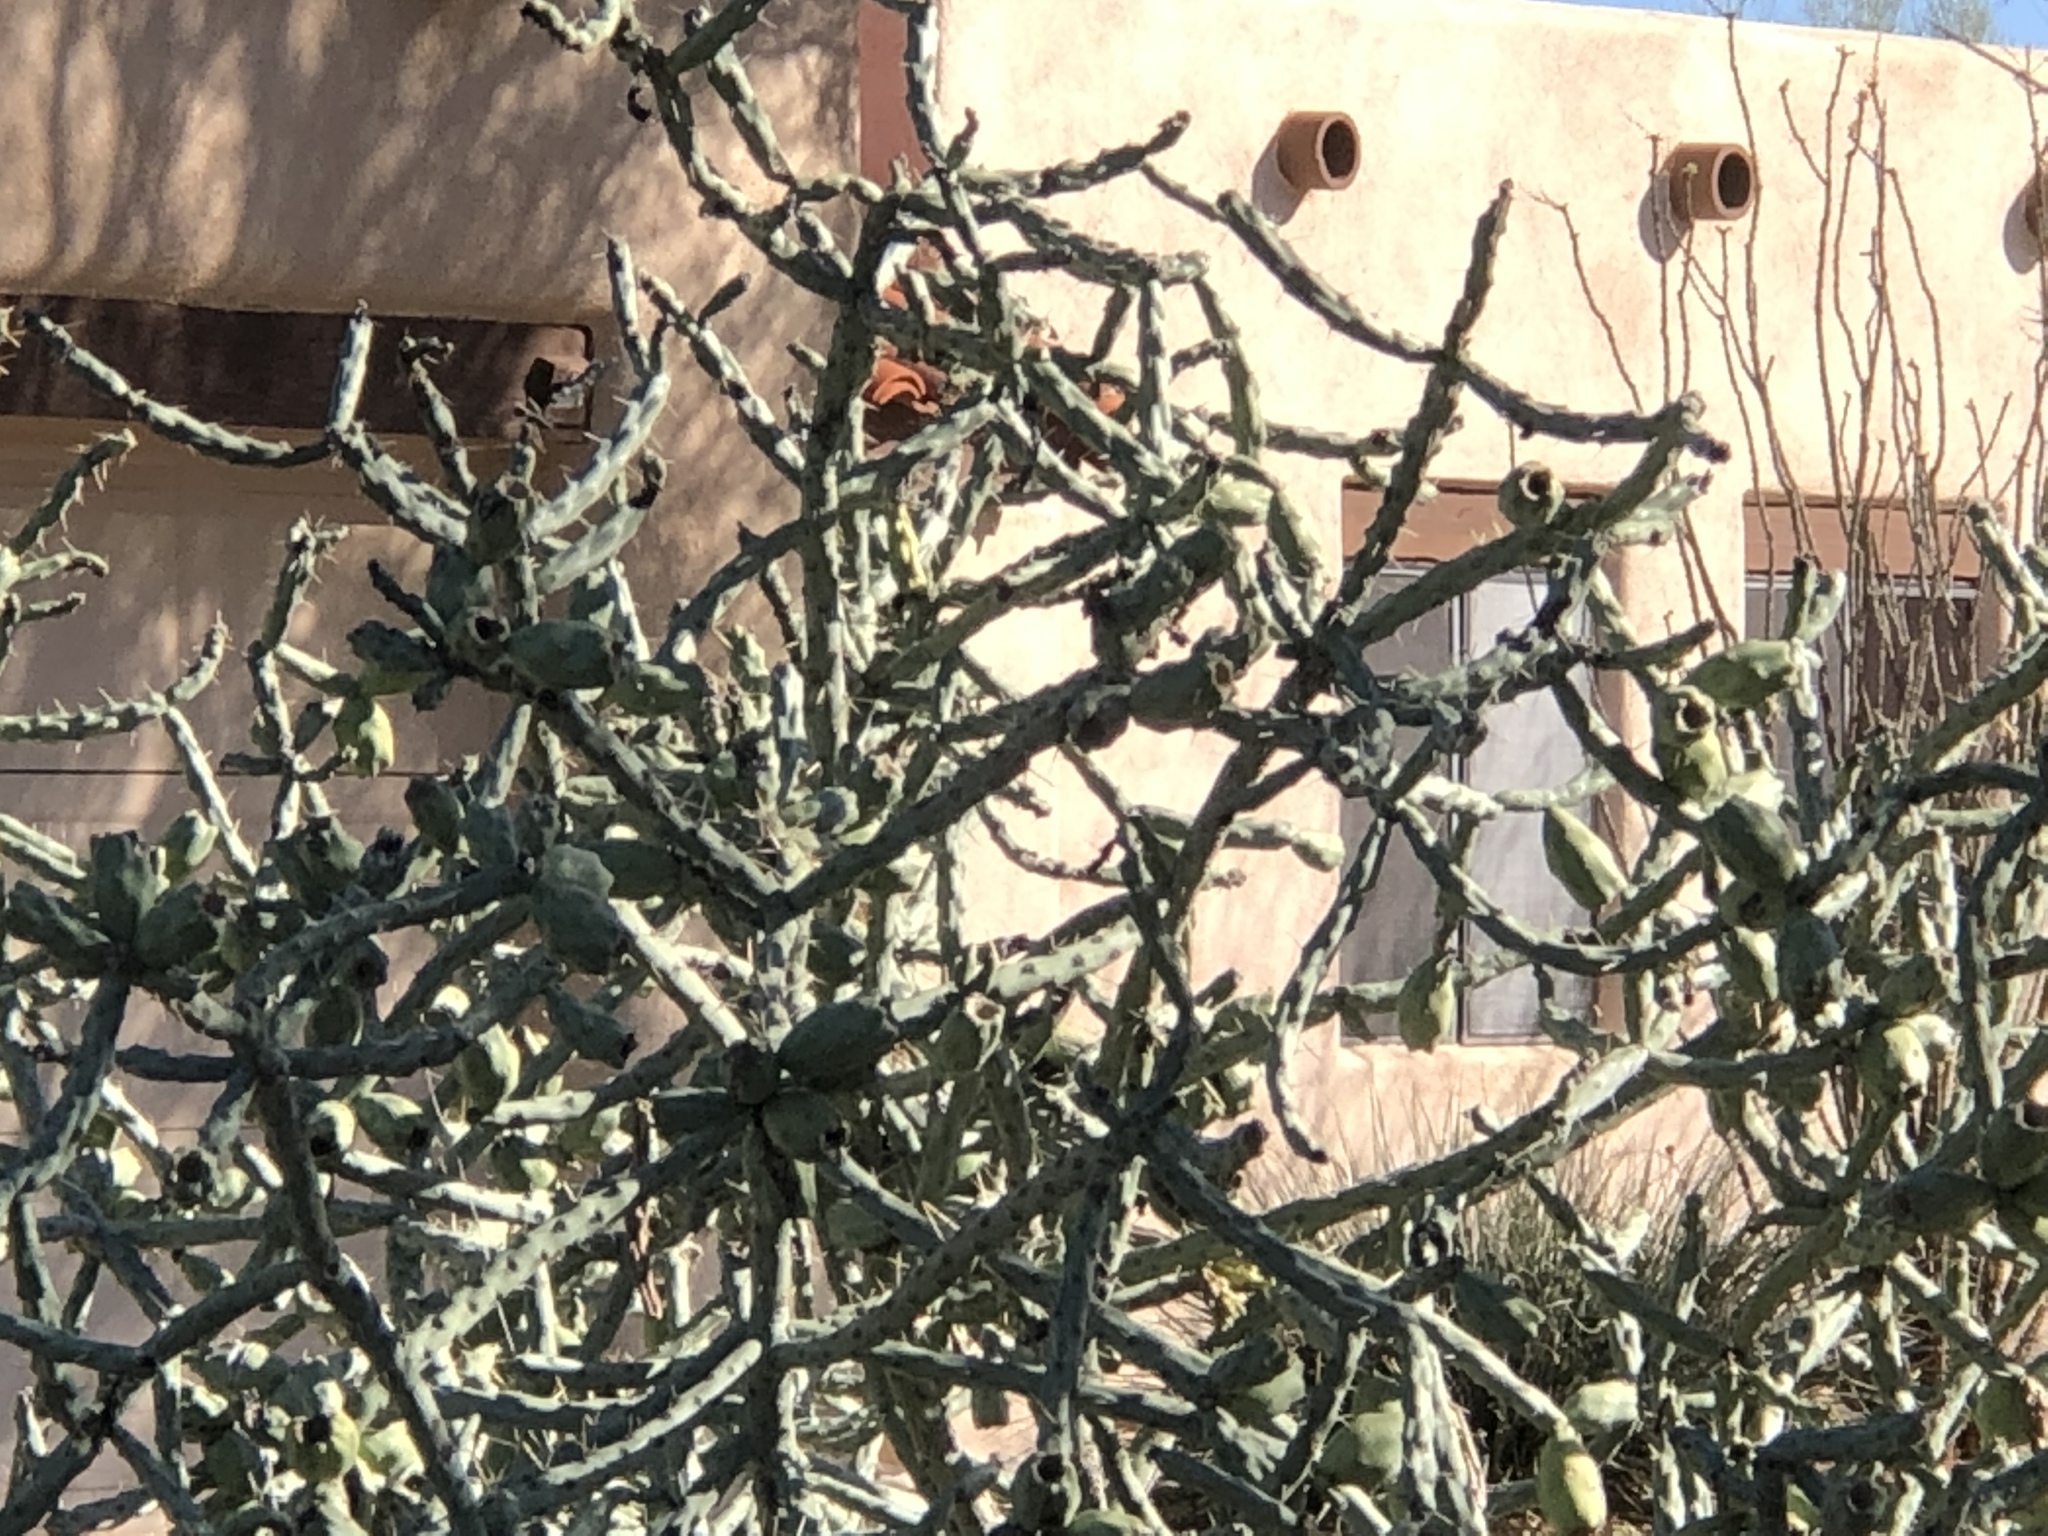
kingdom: Plantae
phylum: Tracheophyta
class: Magnoliopsida
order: Caryophyllales
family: Cactaceae
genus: Cylindropuntia
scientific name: Cylindropuntia arbuscula
